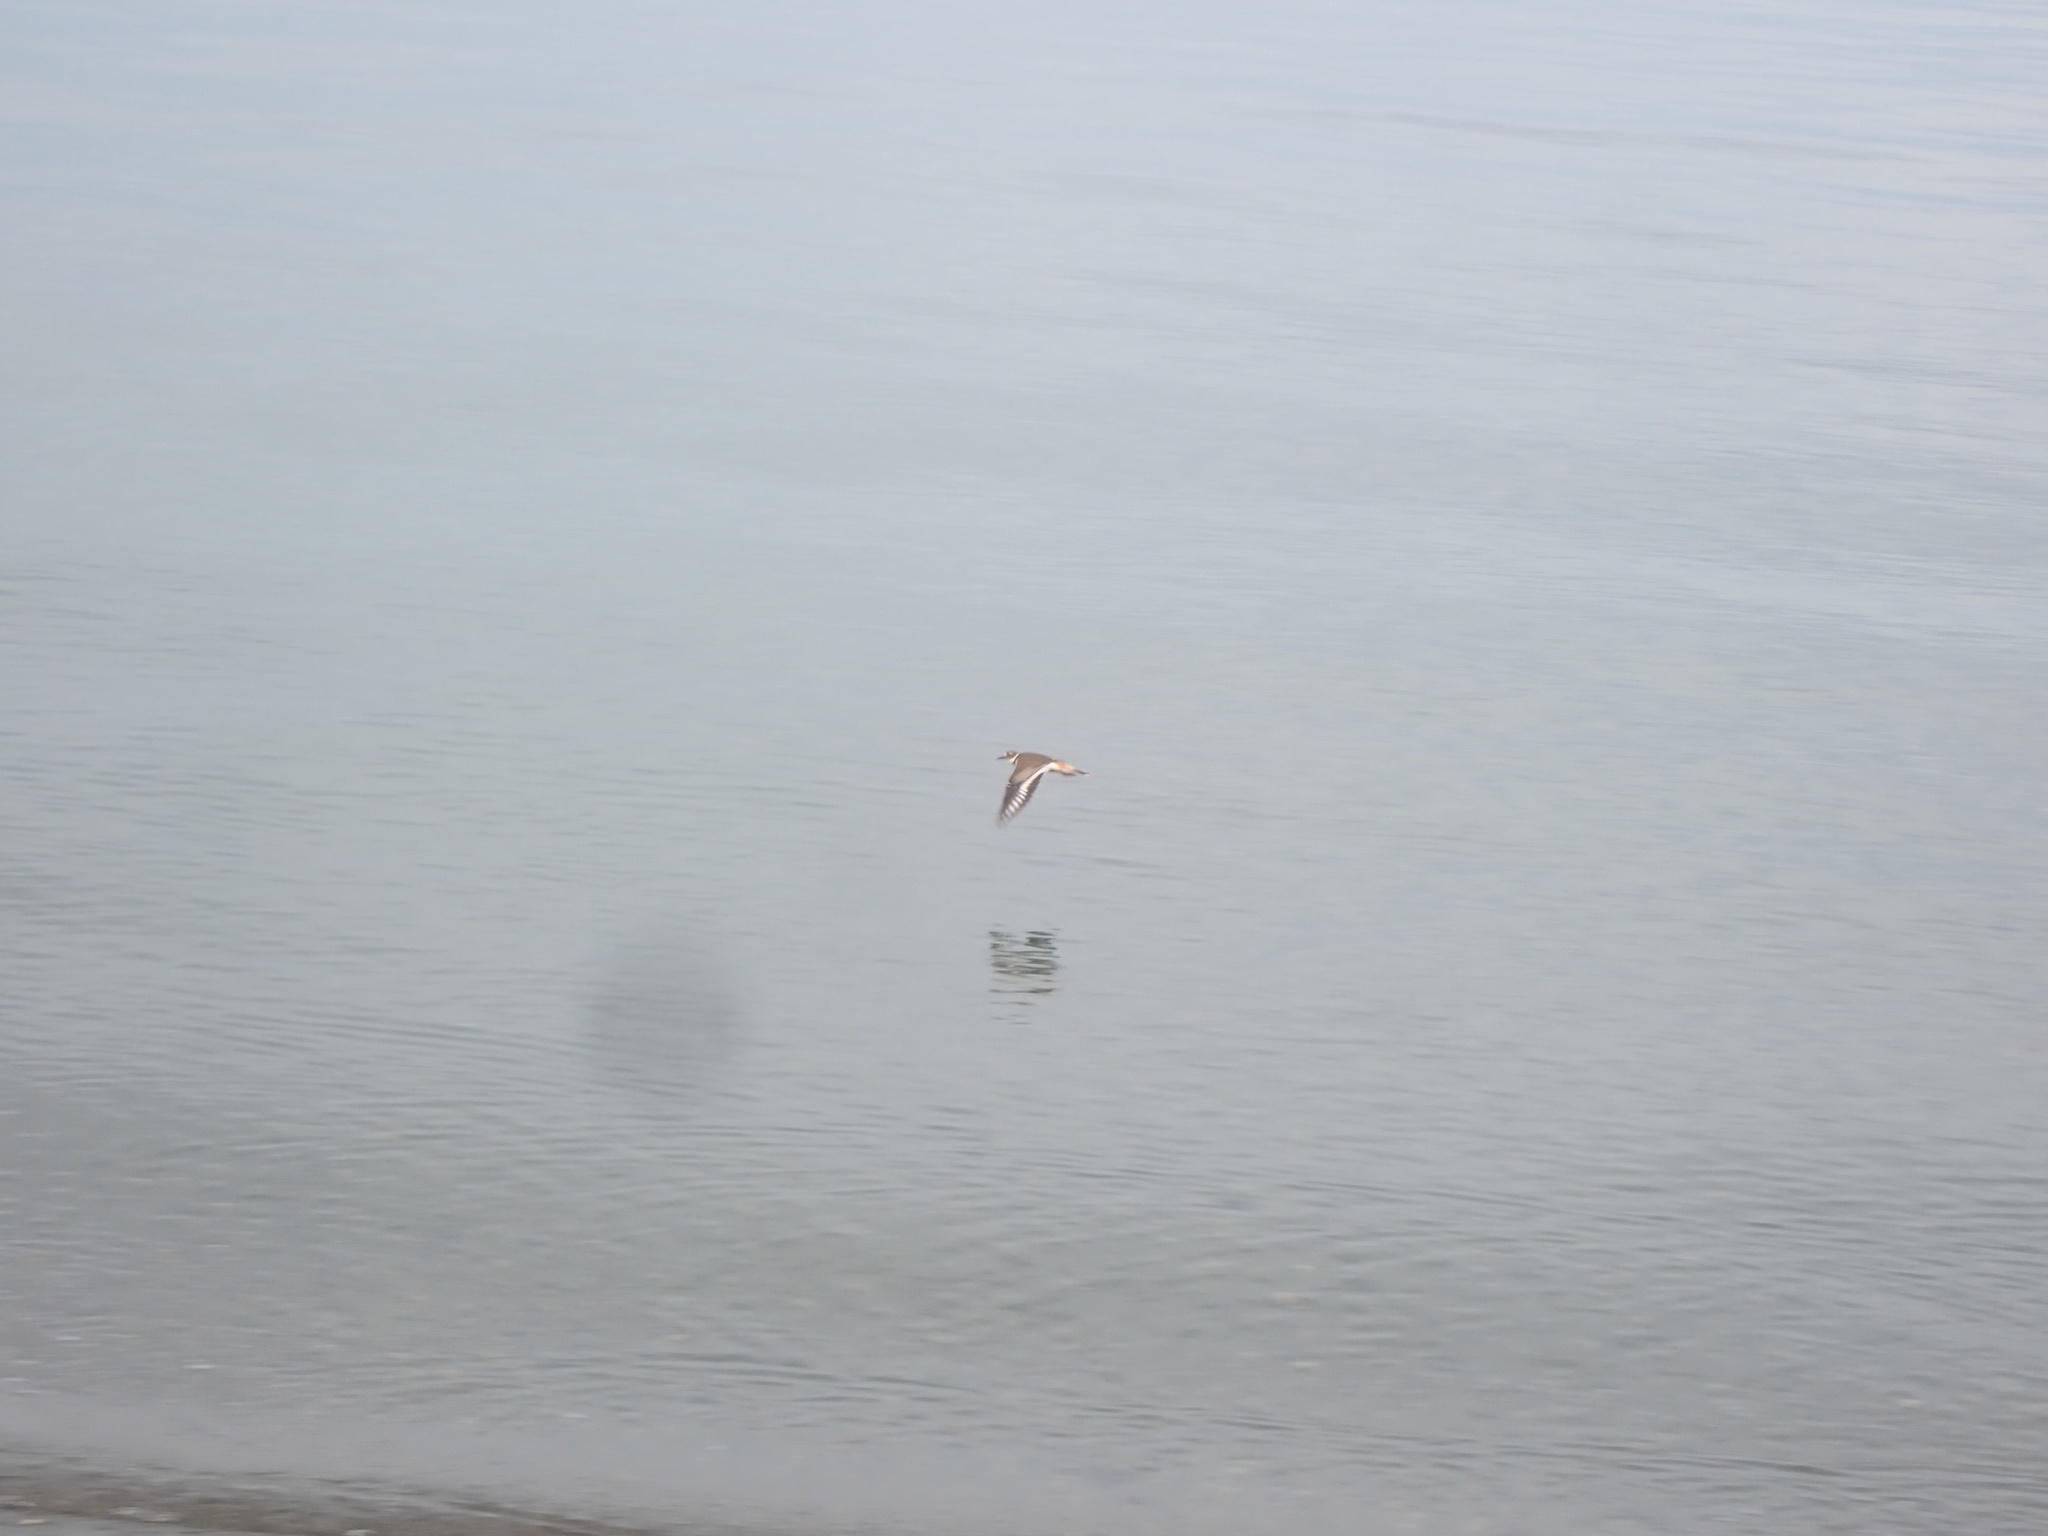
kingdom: Animalia
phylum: Chordata
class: Aves
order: Charadriiformes
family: Charadriidae
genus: Charadrius
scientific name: Charadrius vociferus
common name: Killdeer
